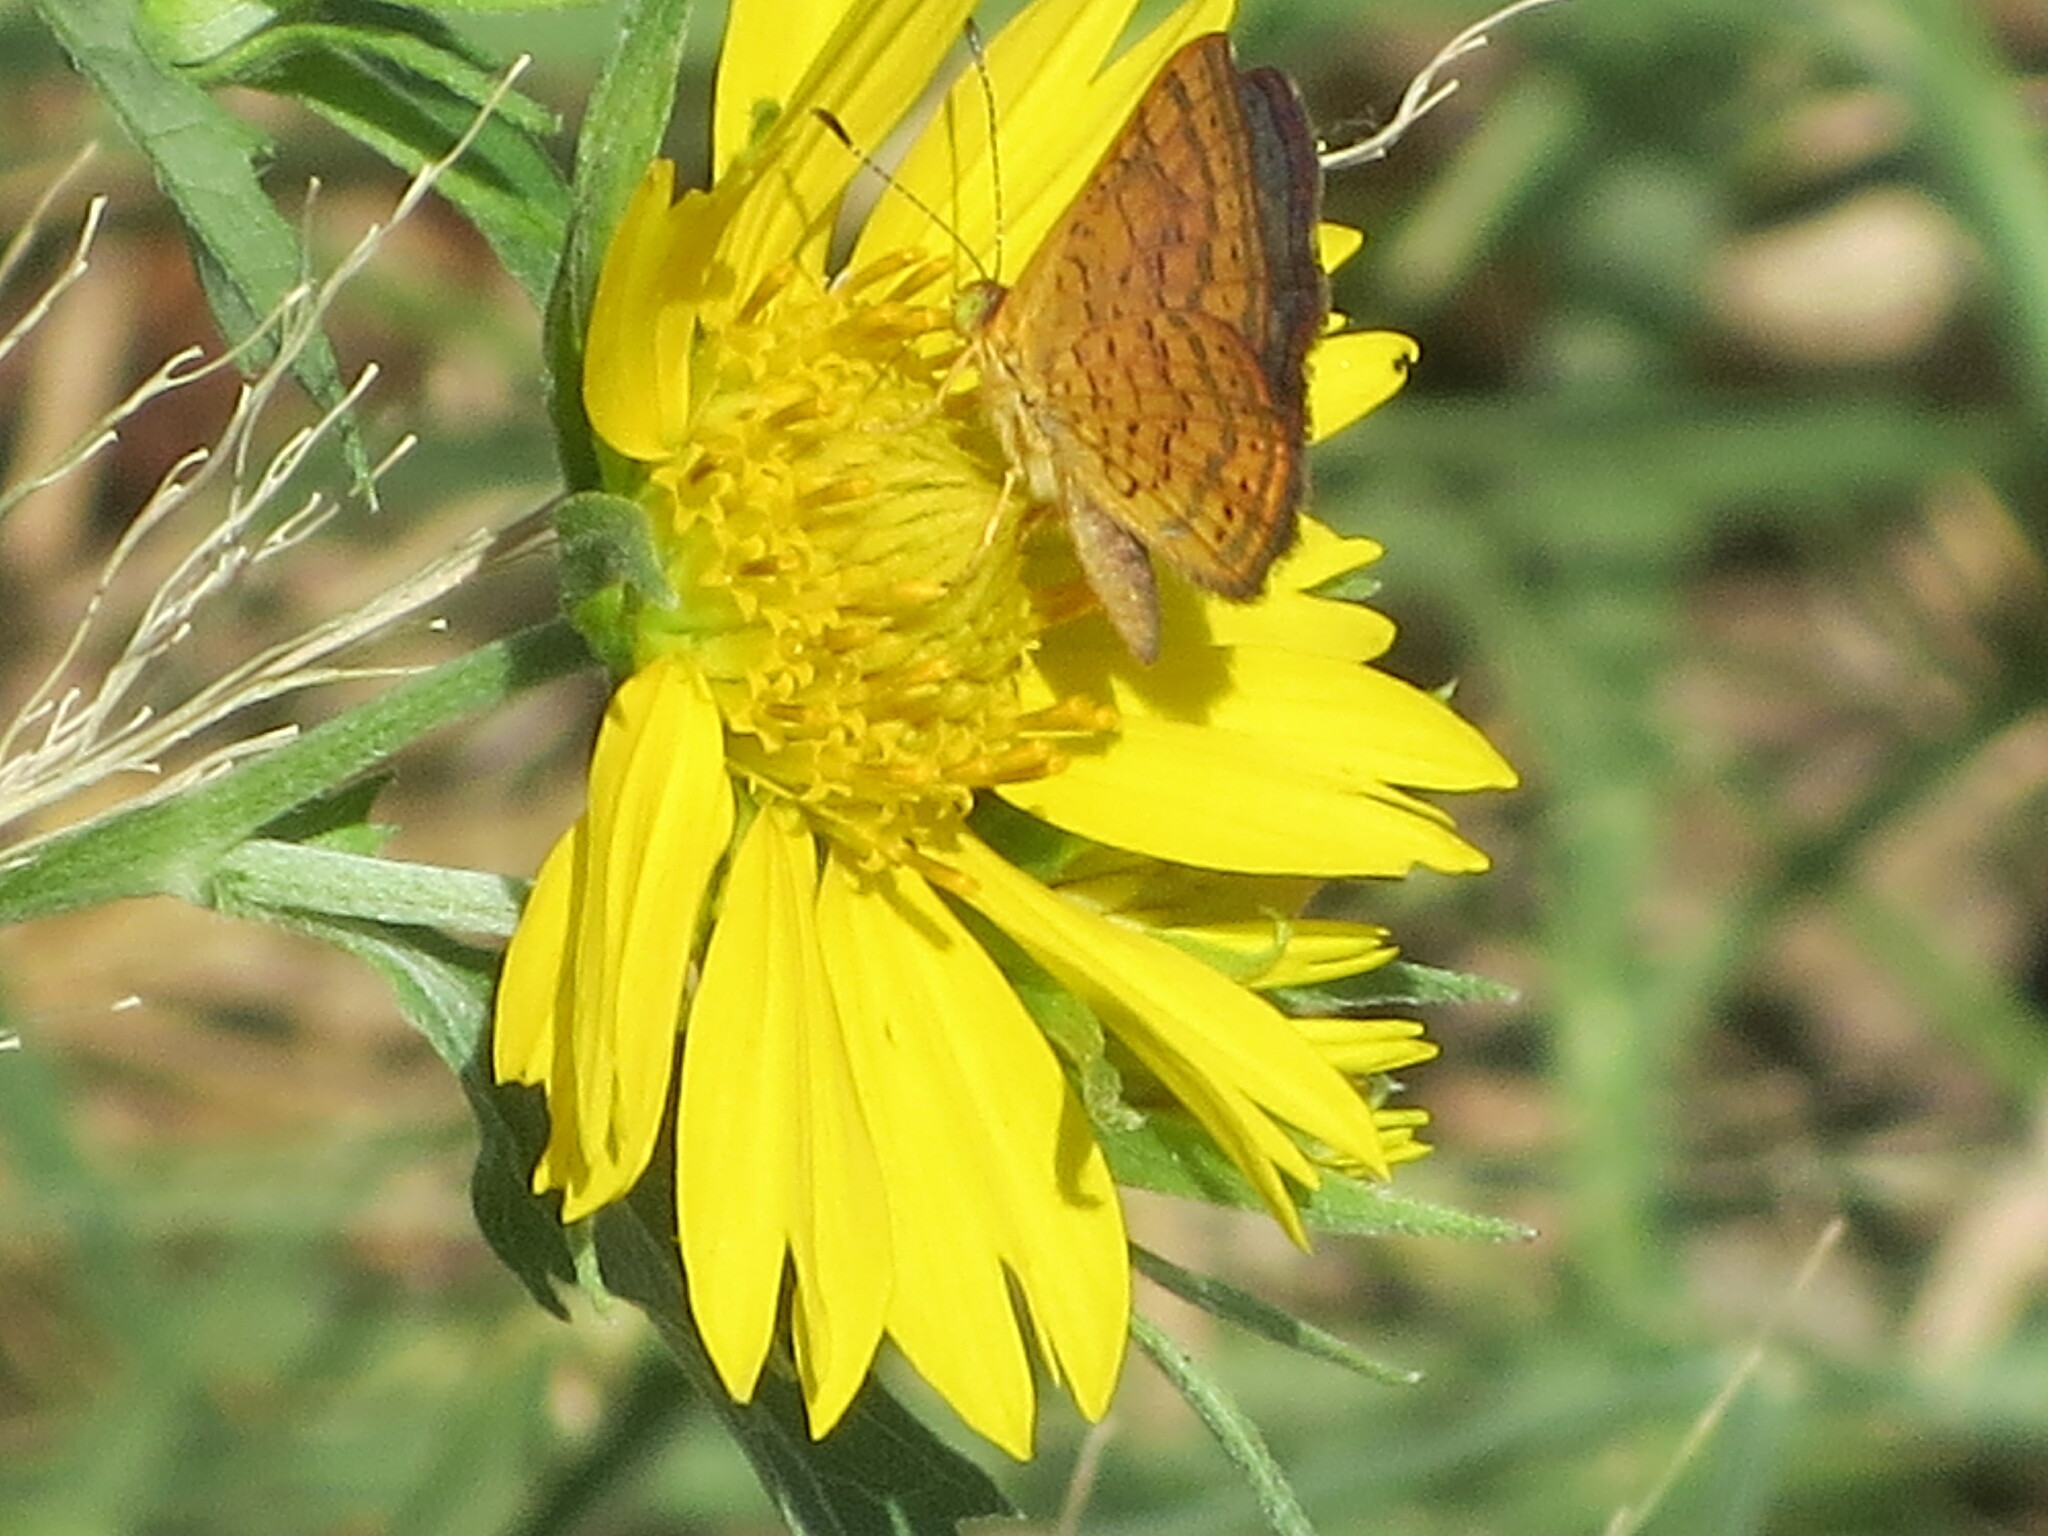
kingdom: Animalia
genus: Calephelis
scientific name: Calephelis nemesis
